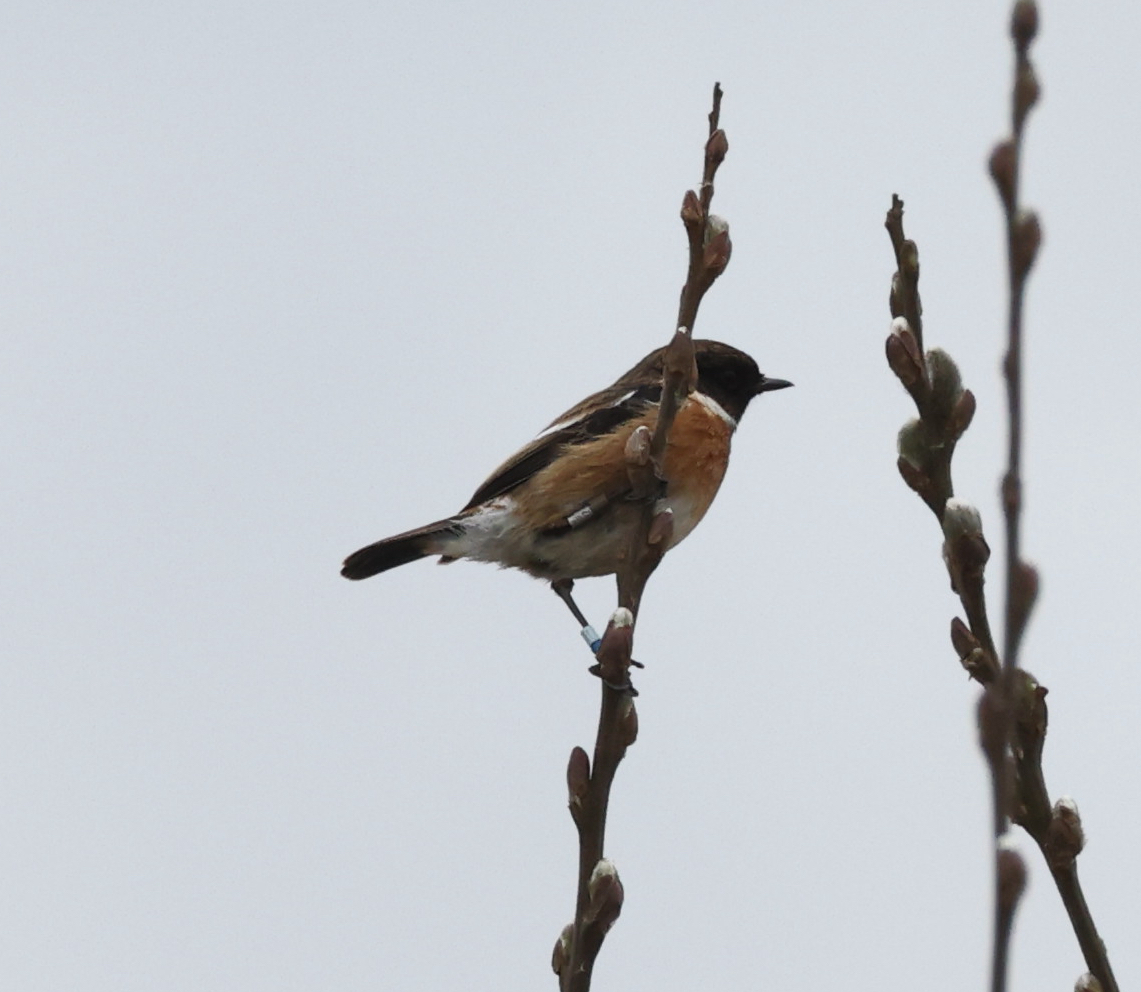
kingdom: Animalia
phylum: Chordata
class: Aves
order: Passeriformes
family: Muscicapidae
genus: Saxicola
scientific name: Saxicola rubicola
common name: European stonechat
